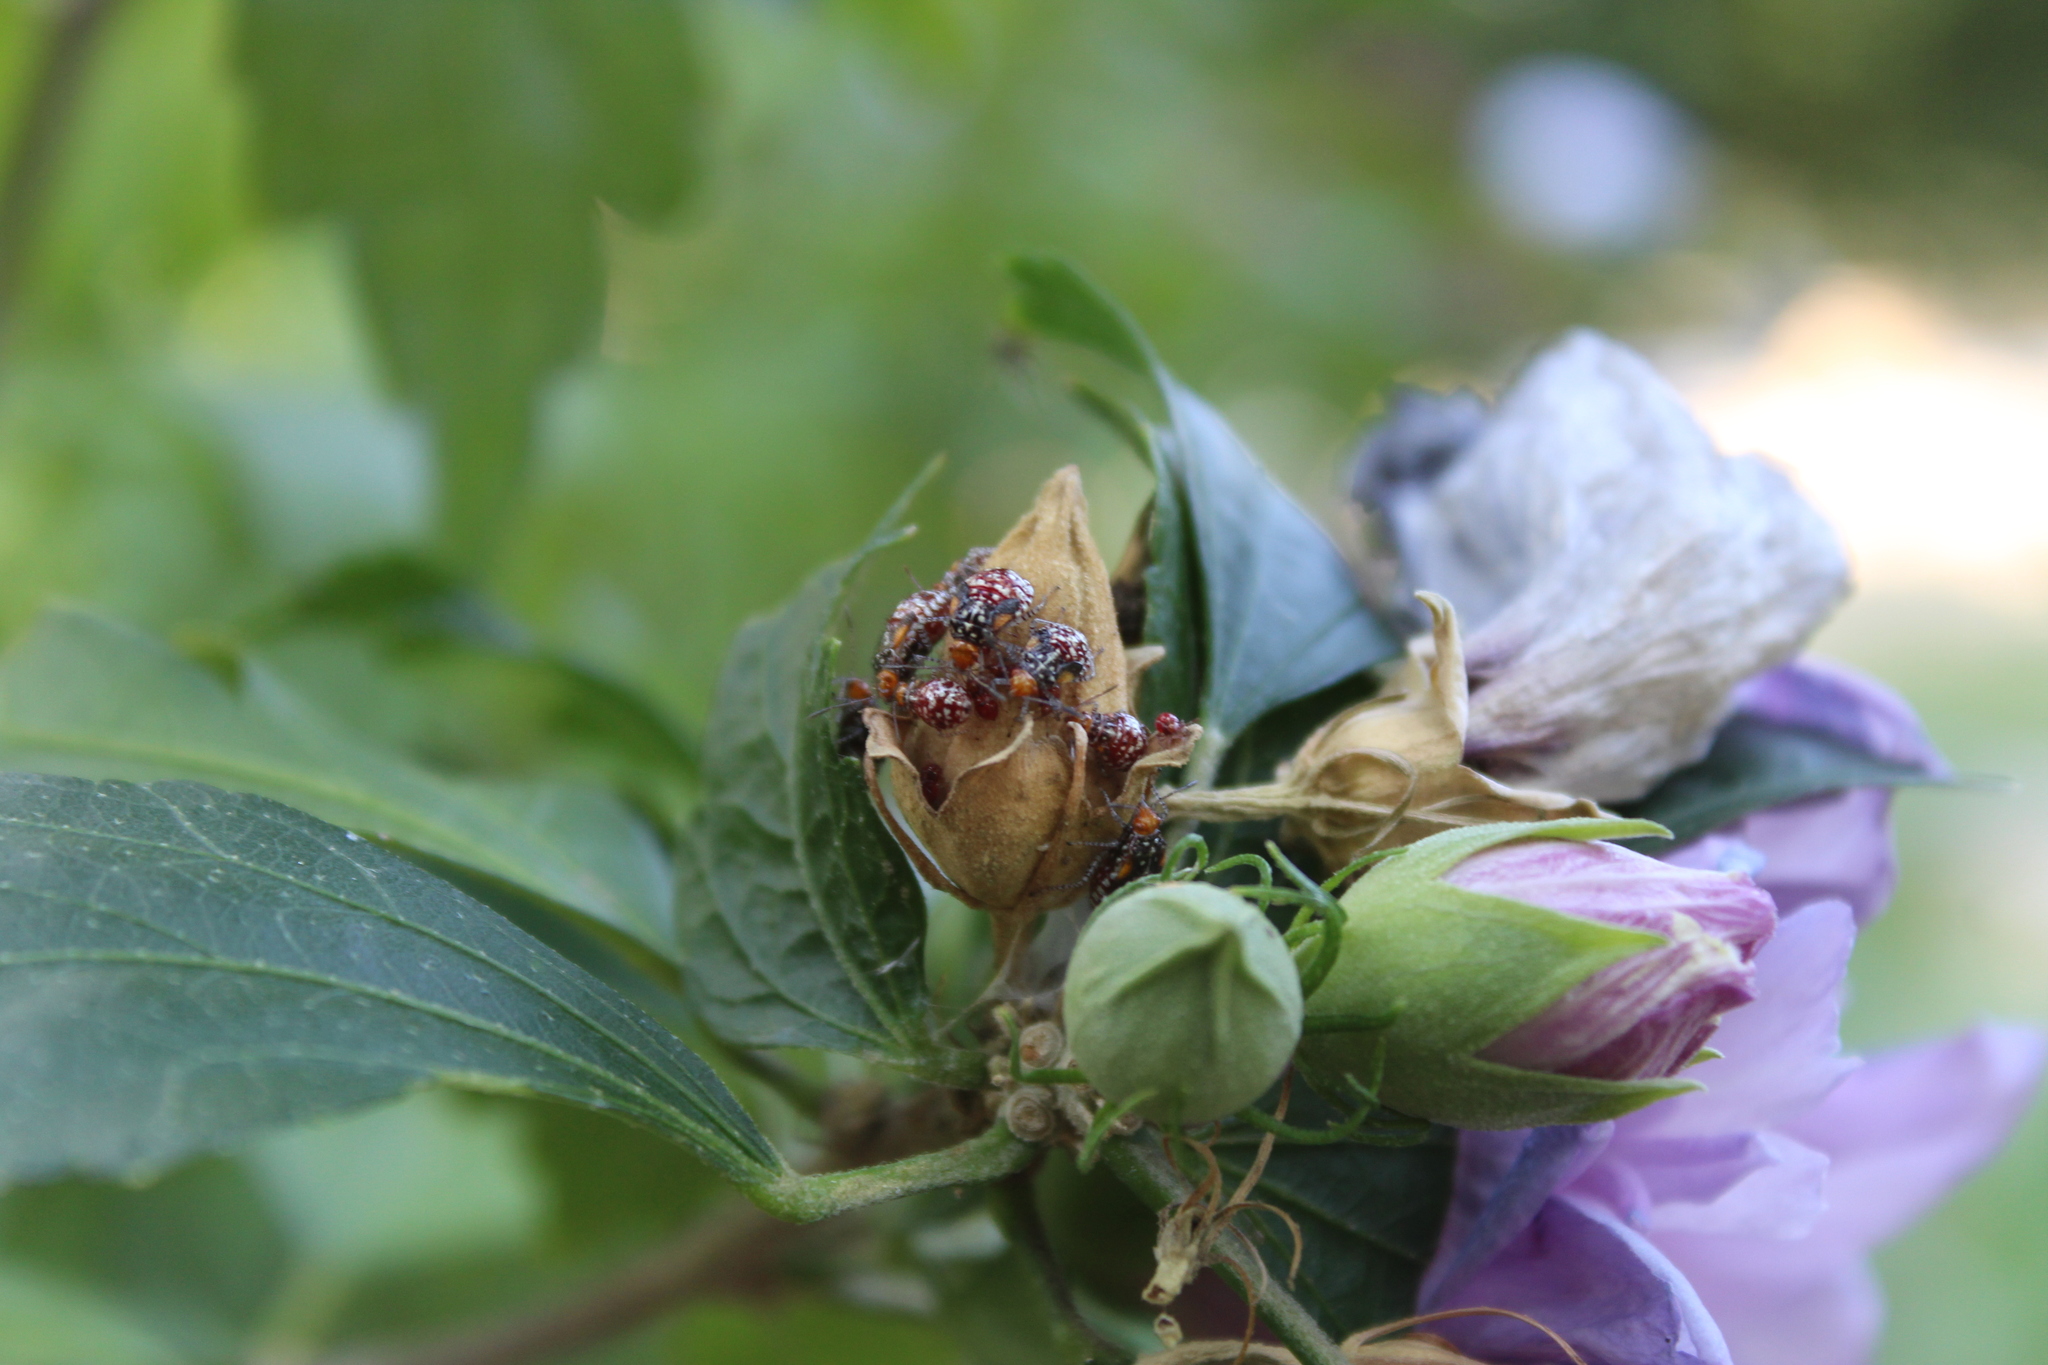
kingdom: Animalia
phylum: Arthropoda
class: Insecta
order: Hemiptera
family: Rhopalidae
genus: Niesthrea
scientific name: Niesthrea louisianica
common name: Scentless plant bug
